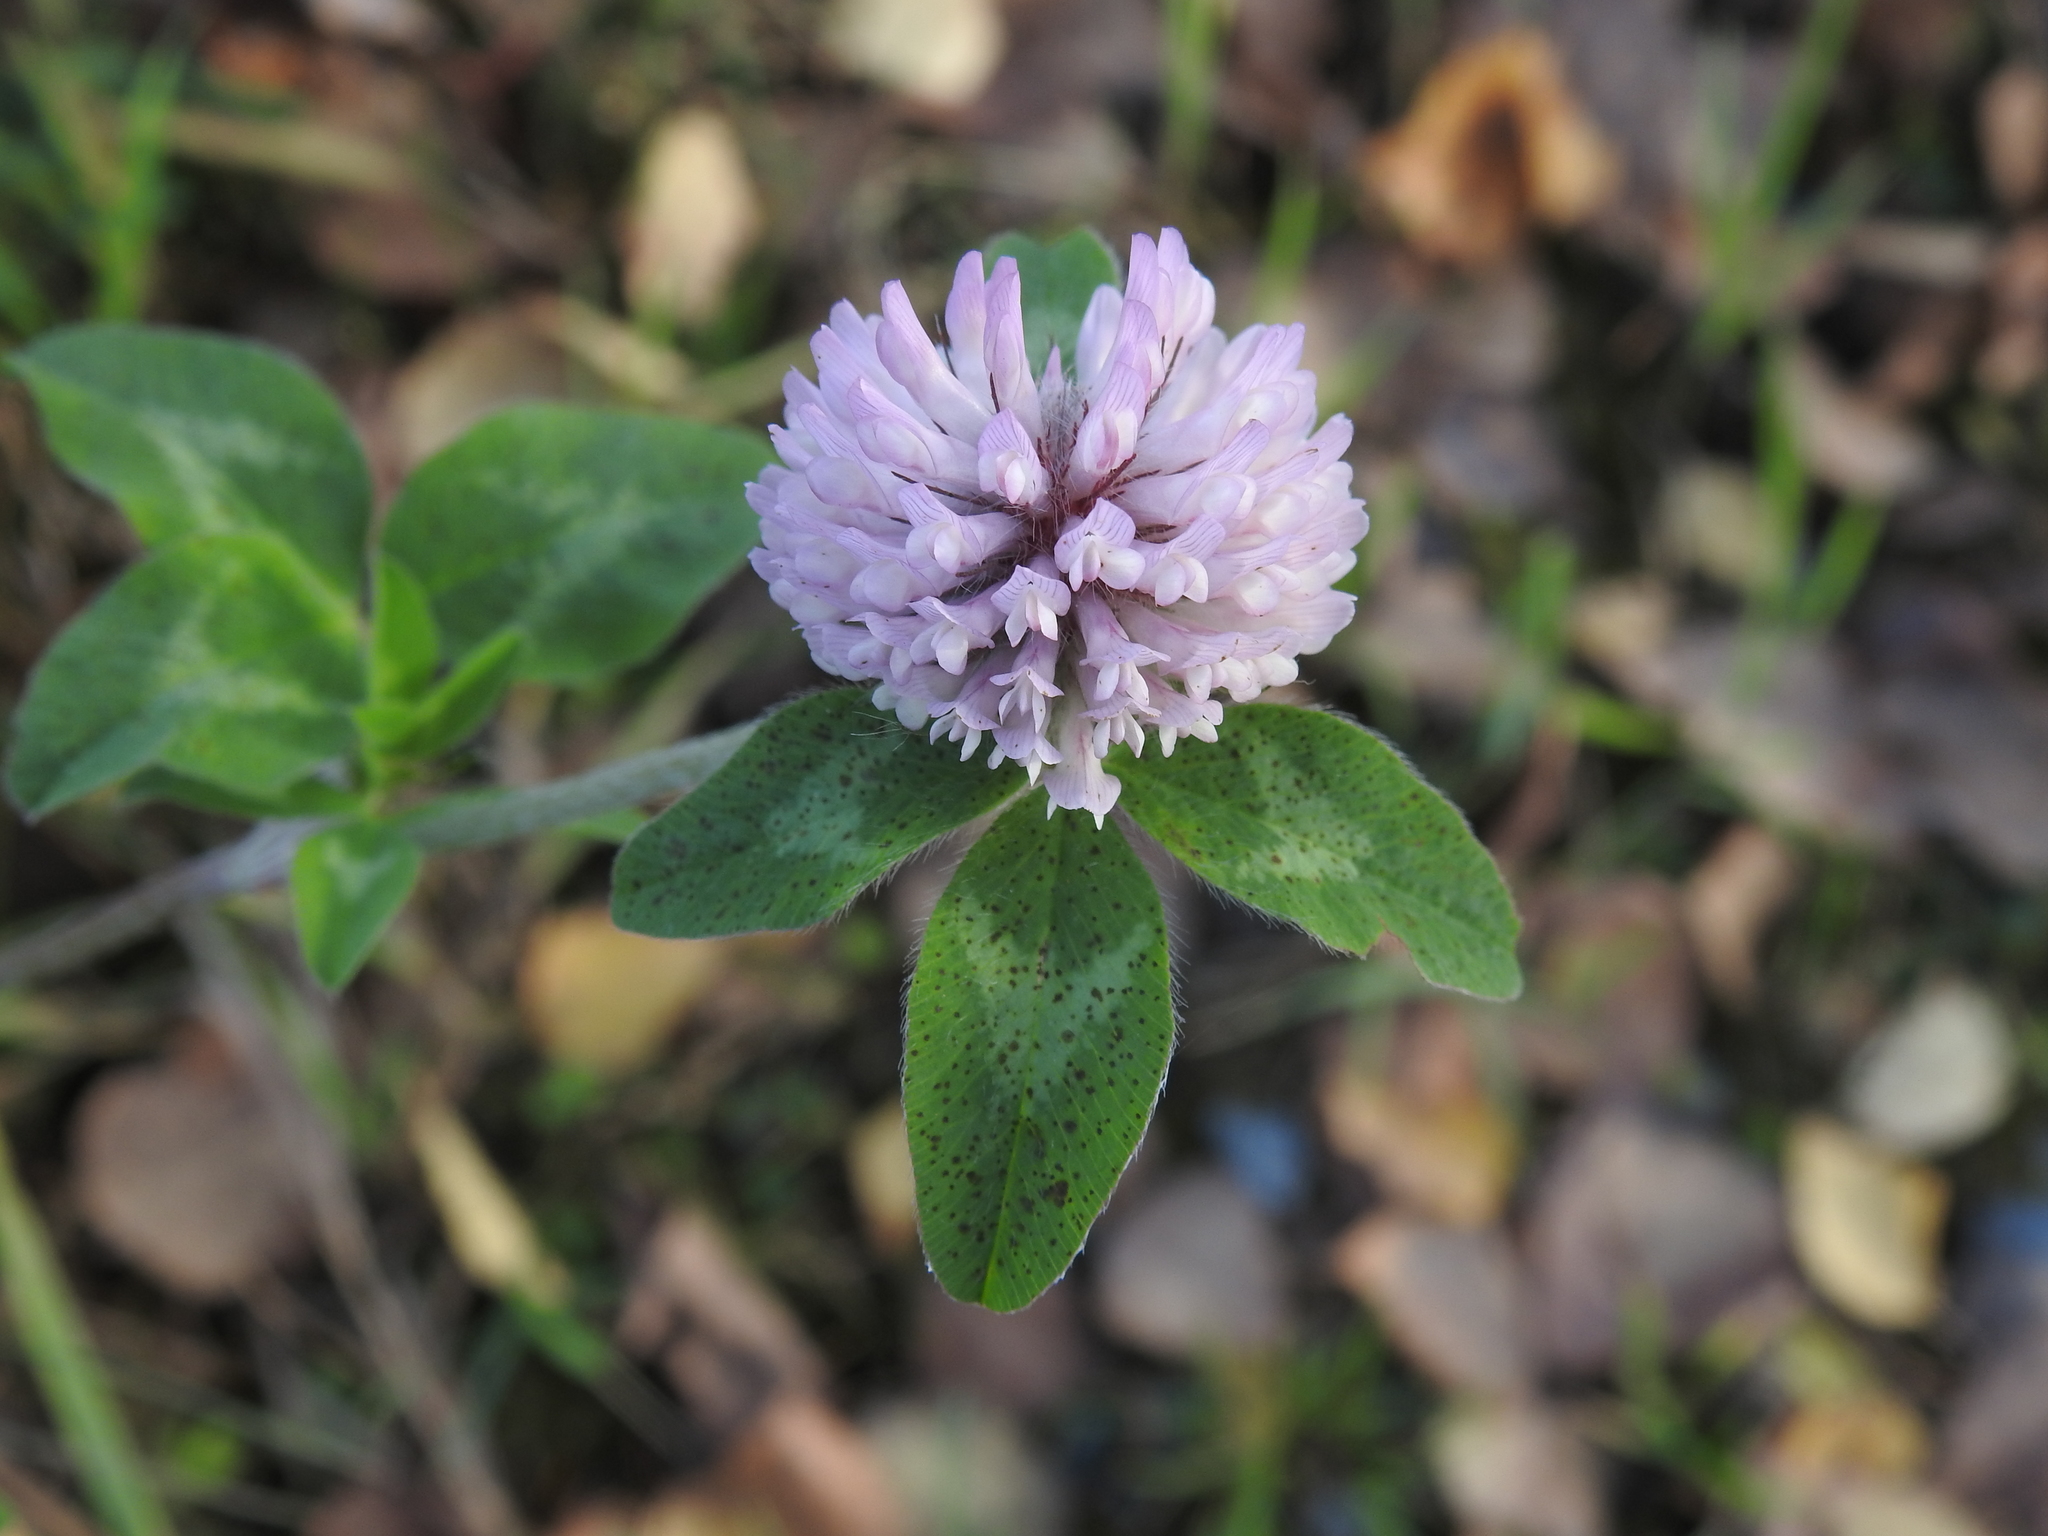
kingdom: Plantae
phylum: Tracheophyta
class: Magnoliopsida
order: Fabales
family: Fabaceae
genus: Trifolium
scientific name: Trifolium pratense
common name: Red clover
